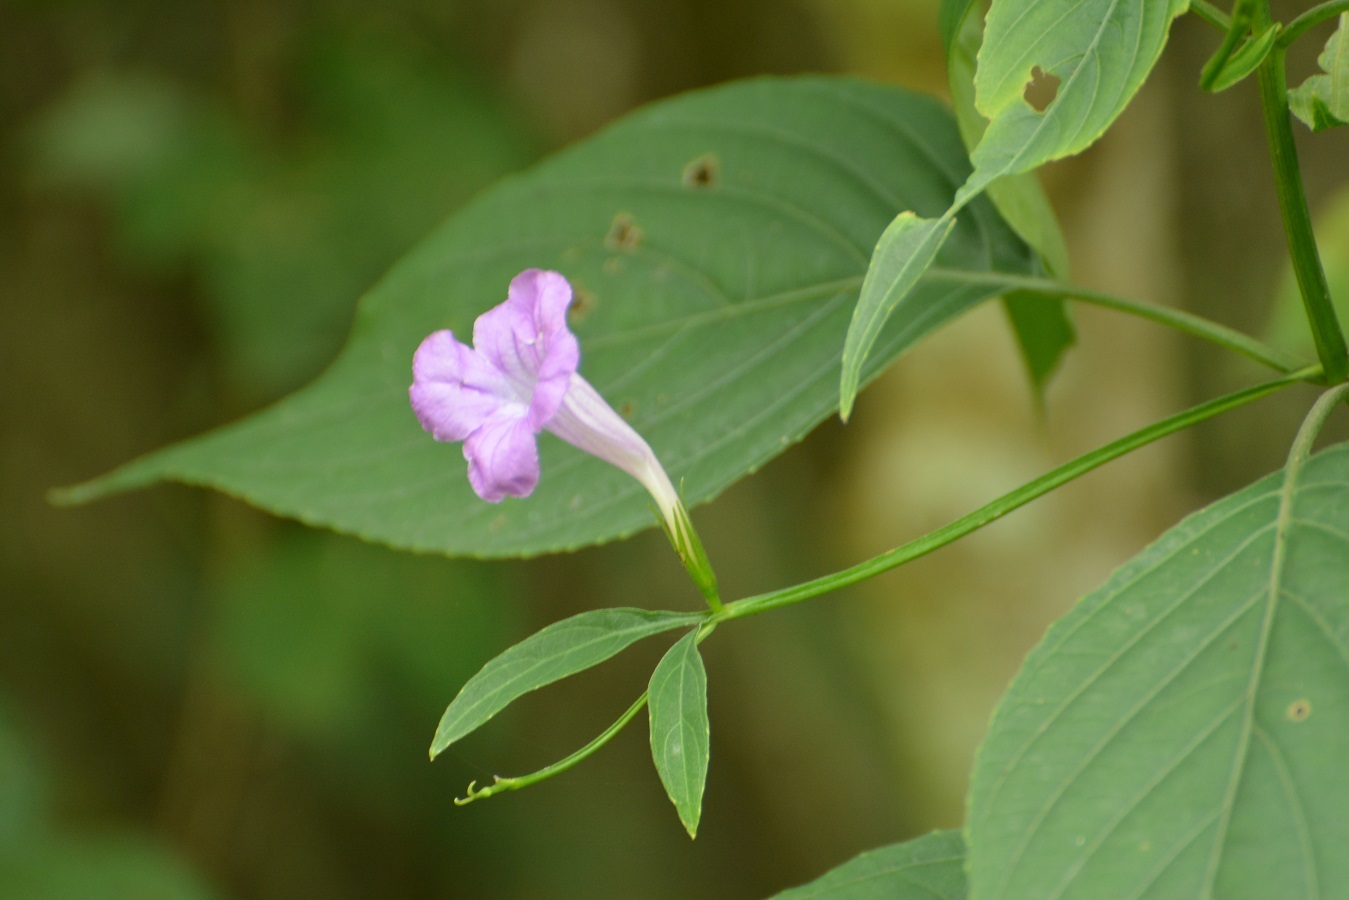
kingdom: Plantae
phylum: Tracheophyta
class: Magnoliopsida
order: Lamiales
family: Acanthaceae
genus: Ruellia
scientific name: Ruellia breedlovei
